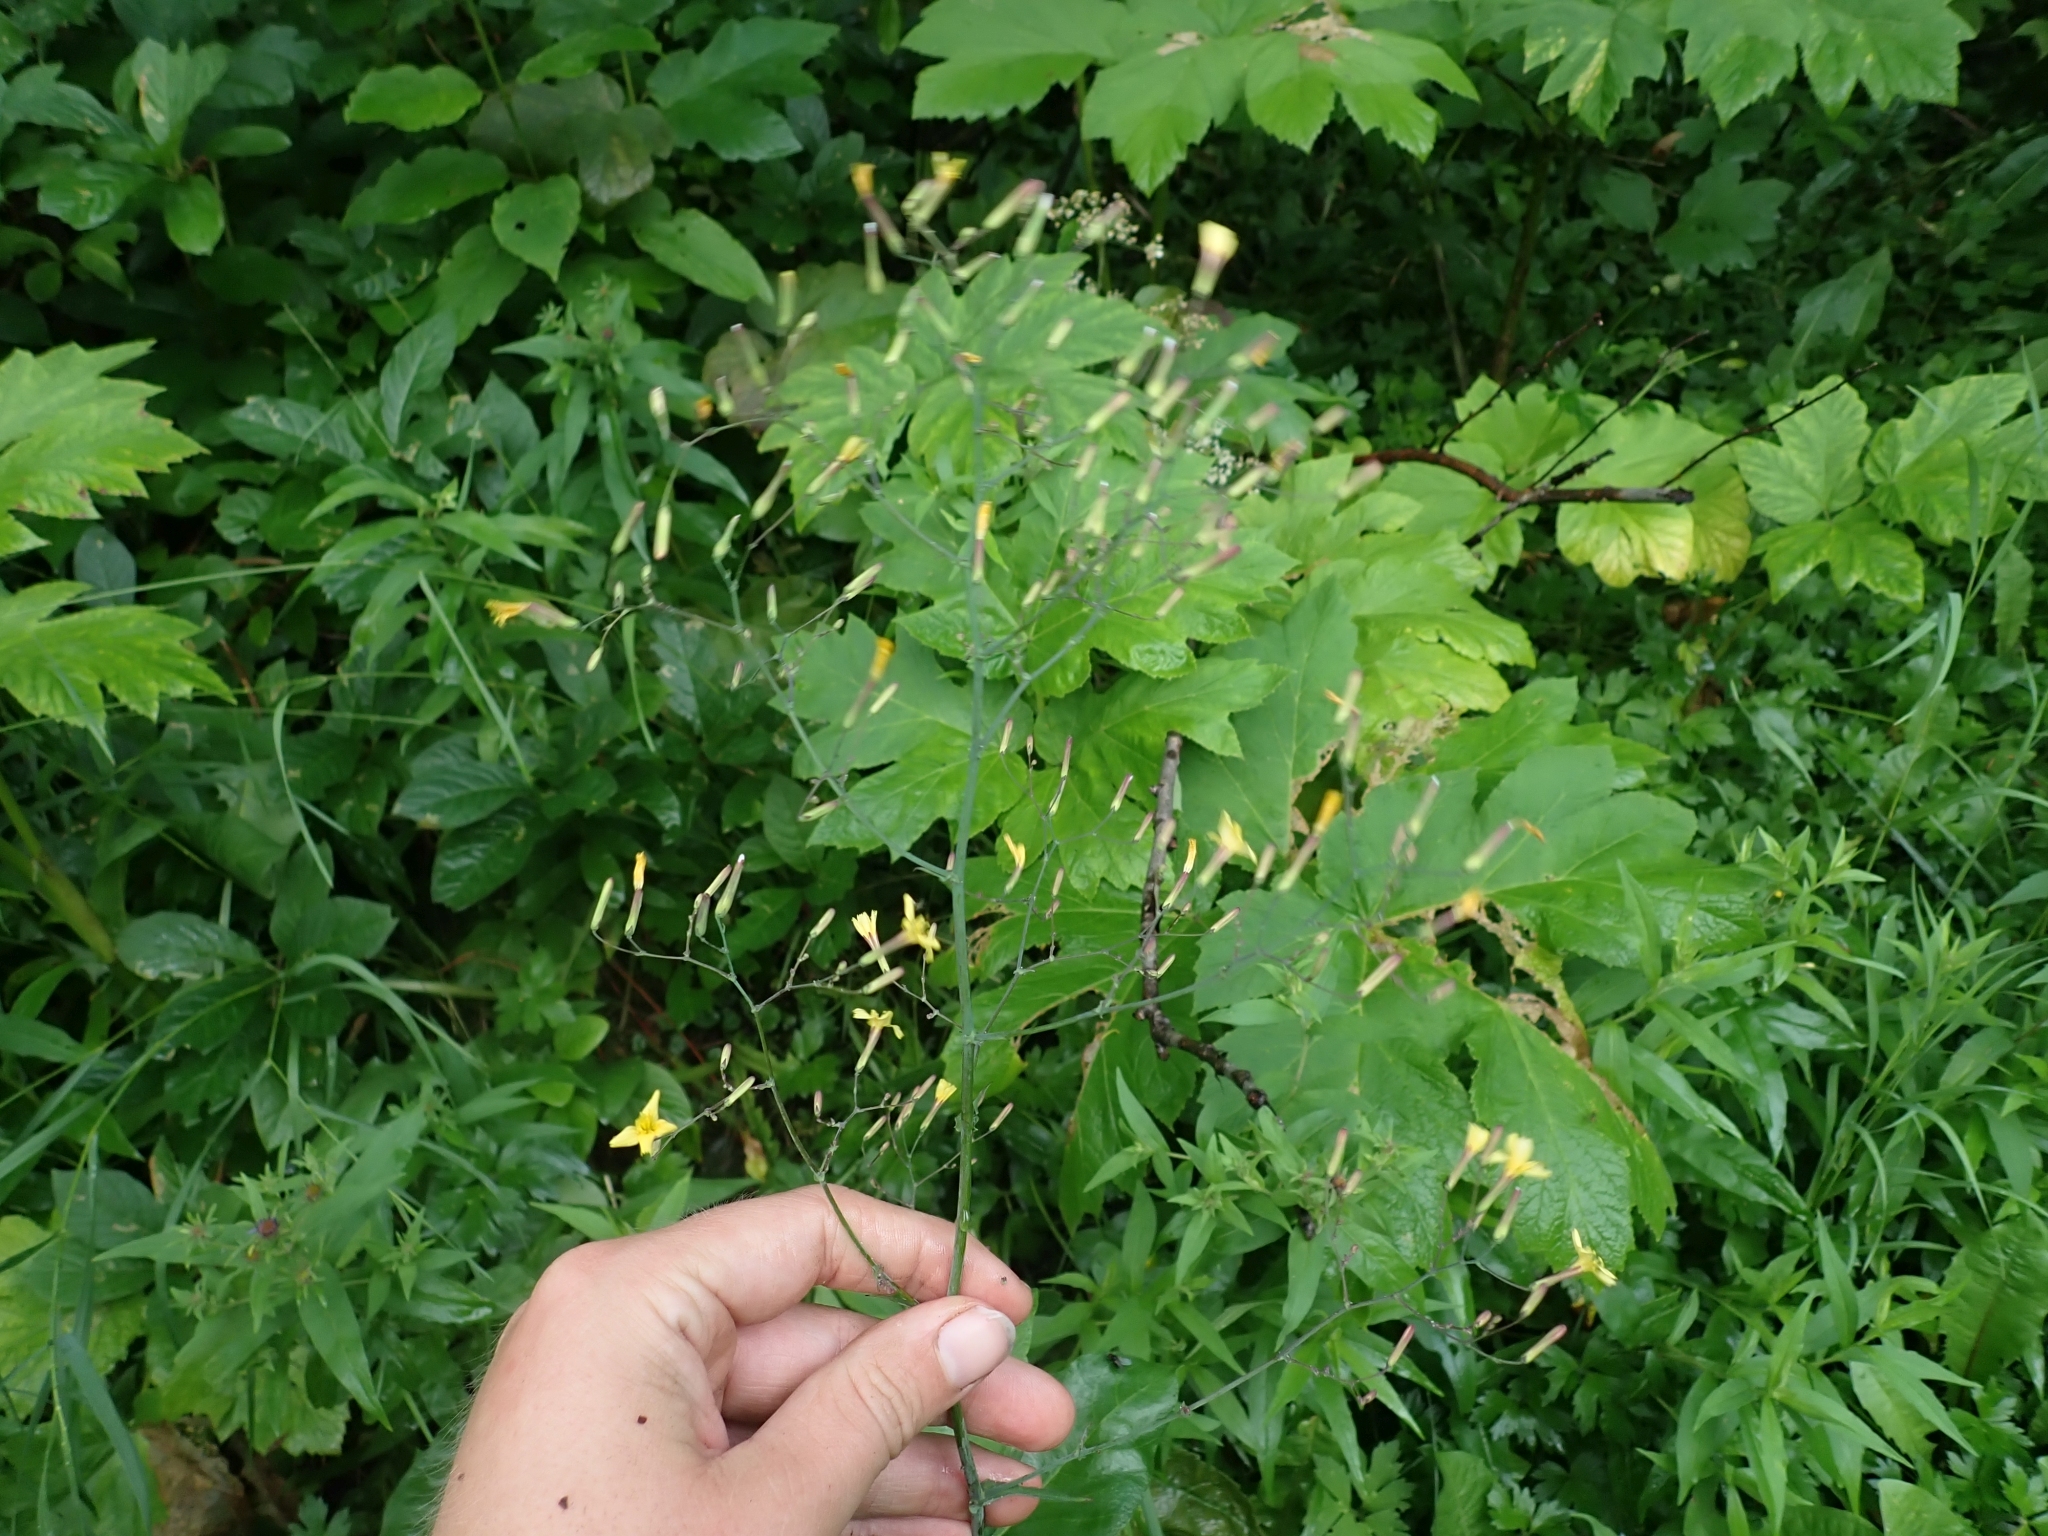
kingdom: Plantae
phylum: Tracheophyta
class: Magnoliopsida
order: Asterales
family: Asteraceae
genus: Mycelis
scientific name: Mycelis muralis
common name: Wall lettuce
